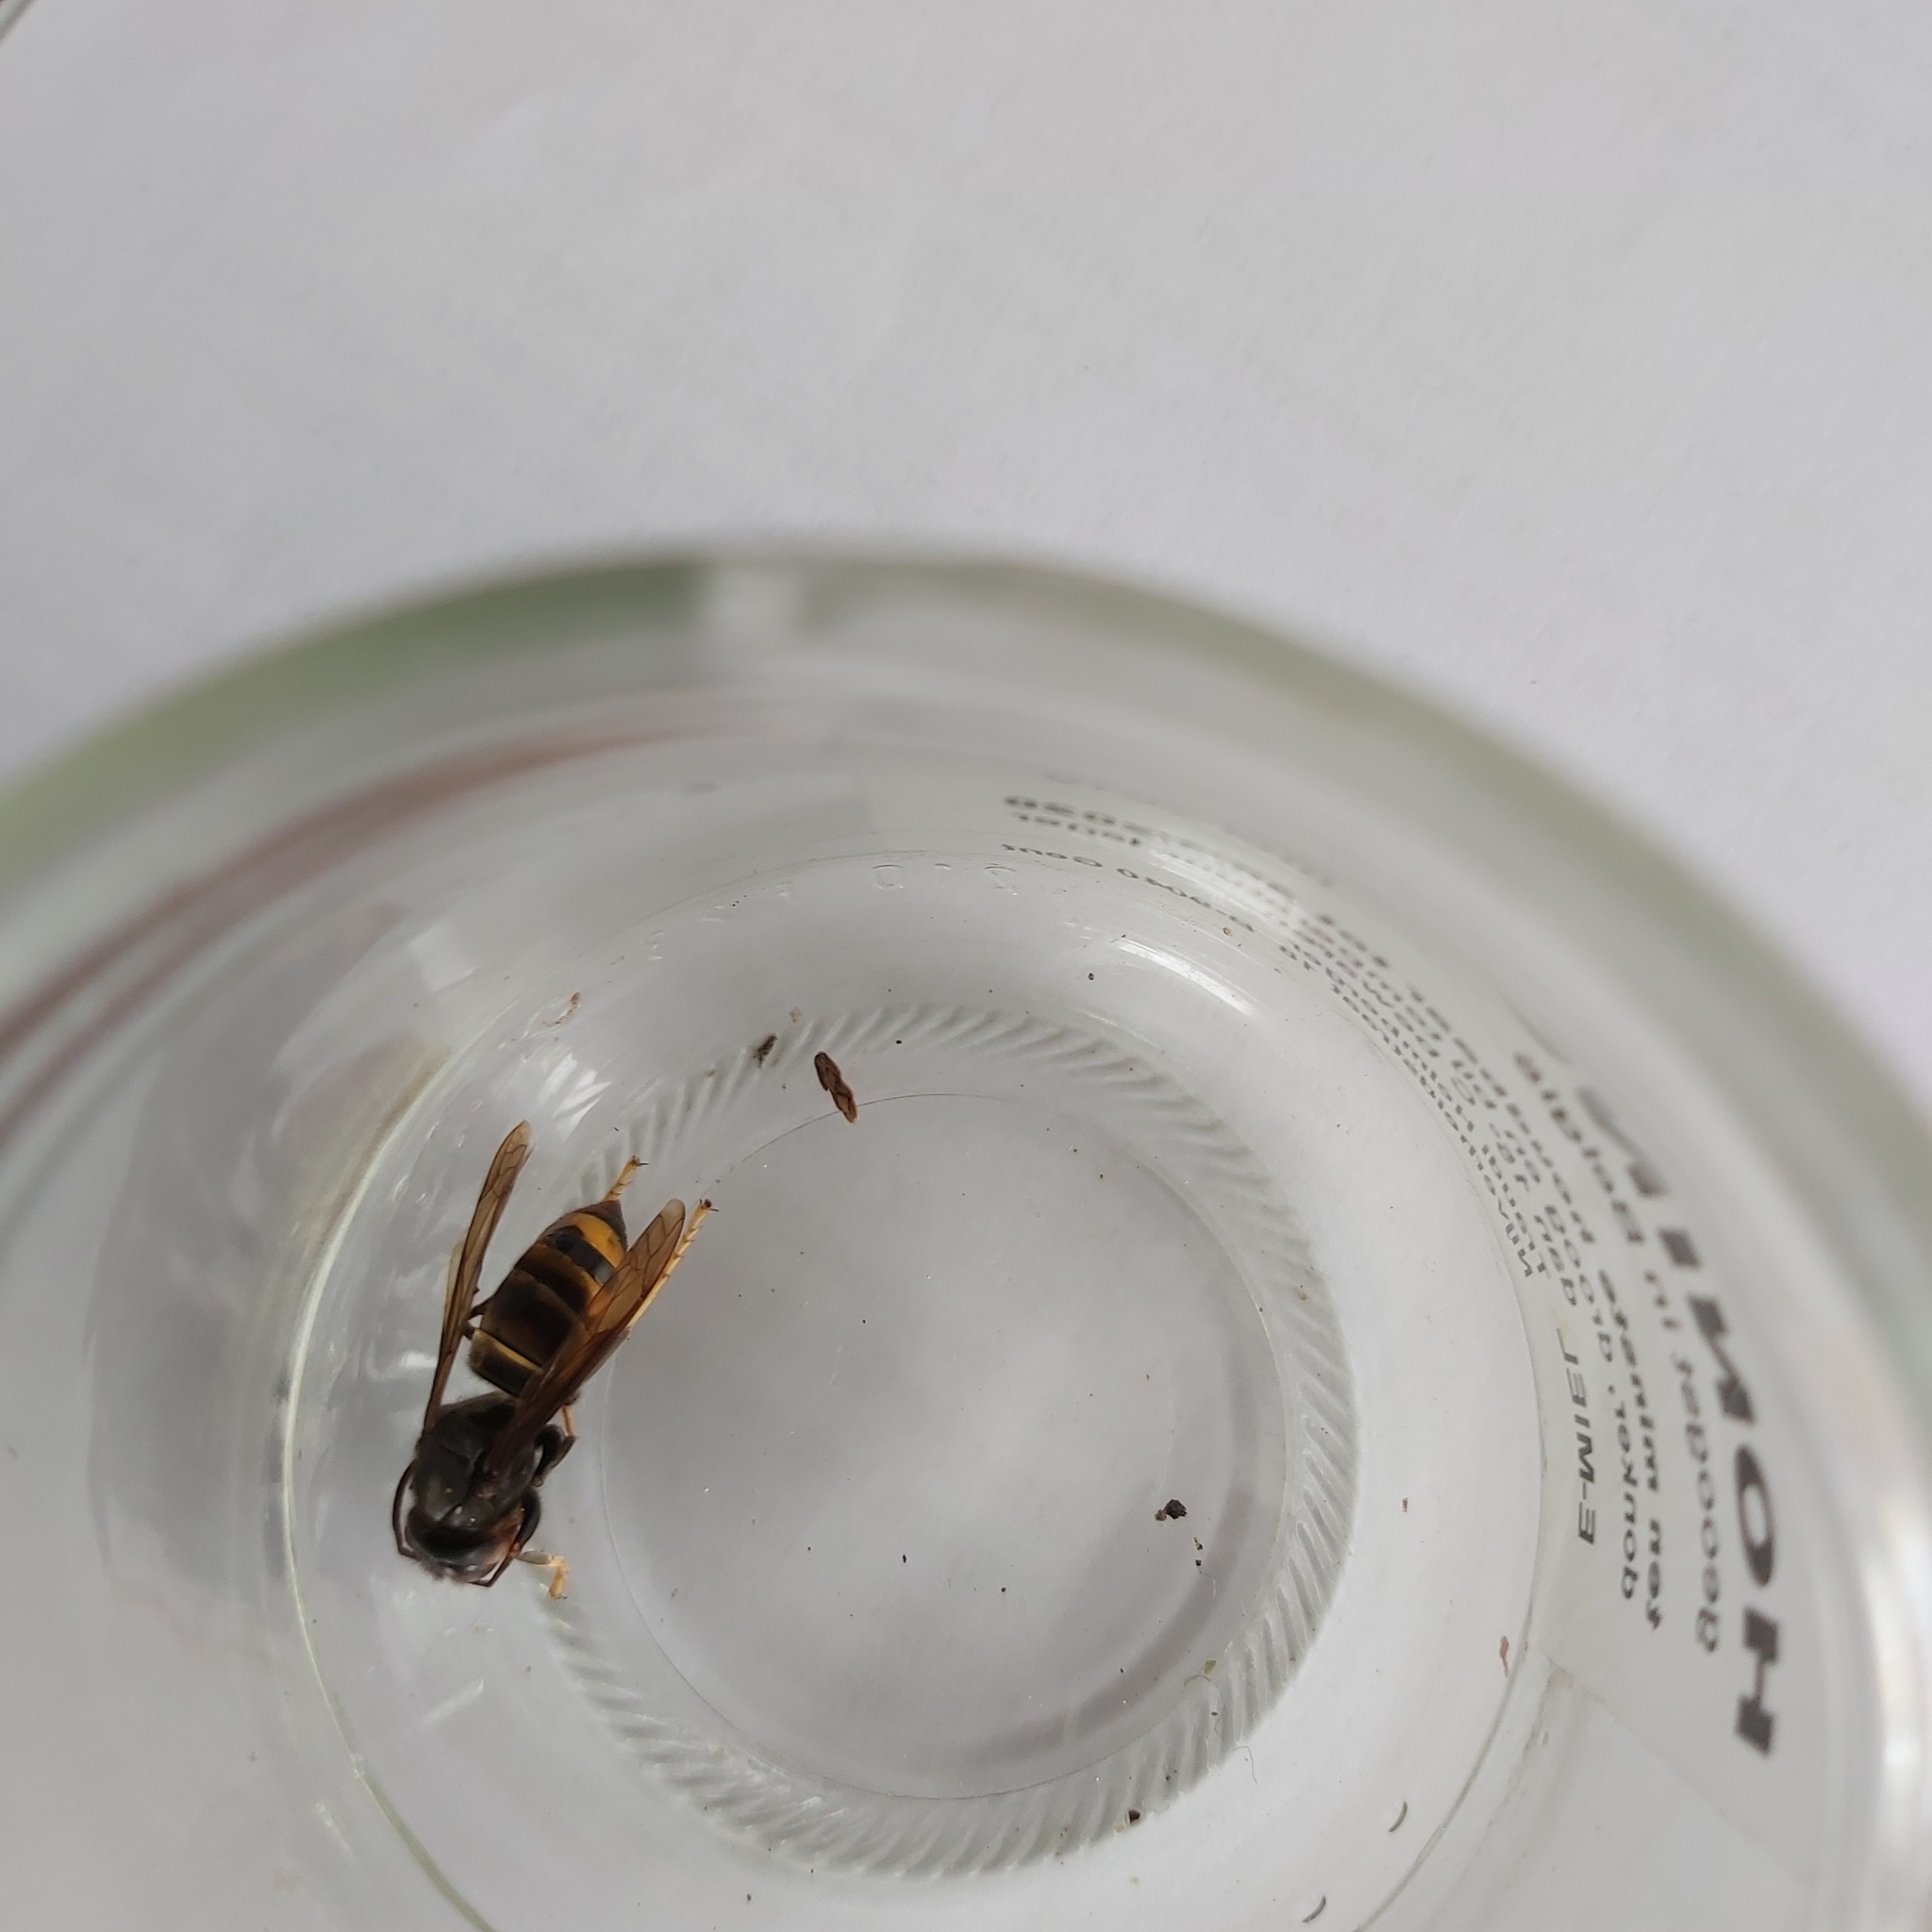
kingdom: Animalia
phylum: Arthropoda
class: Insecta
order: Hymenoptera
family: Vespidae
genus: Vespa
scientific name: Vespa velutina
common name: Asian hornet
